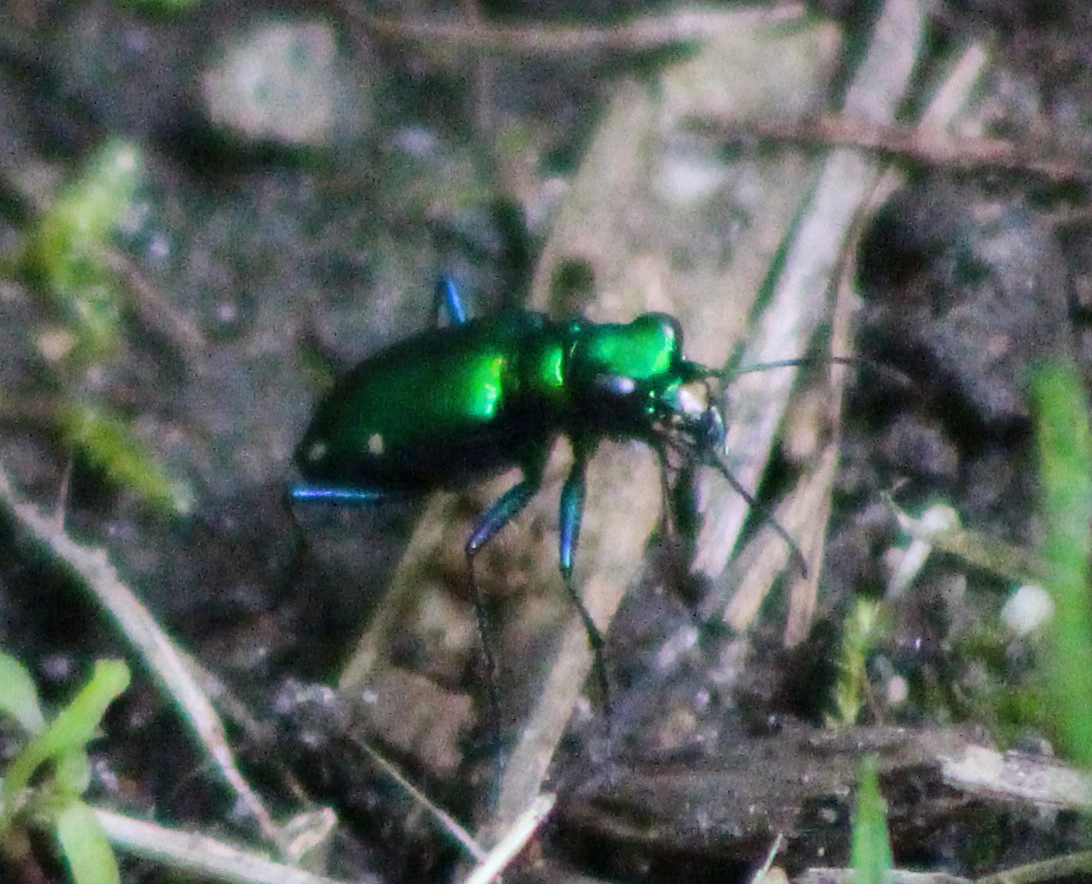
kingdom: Animalia
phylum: Arthropoda
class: Insecta
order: Coleoptera
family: Carabidae
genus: Cicindela
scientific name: Cicindela sexguttata
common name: Six-spotted tiger beetle
